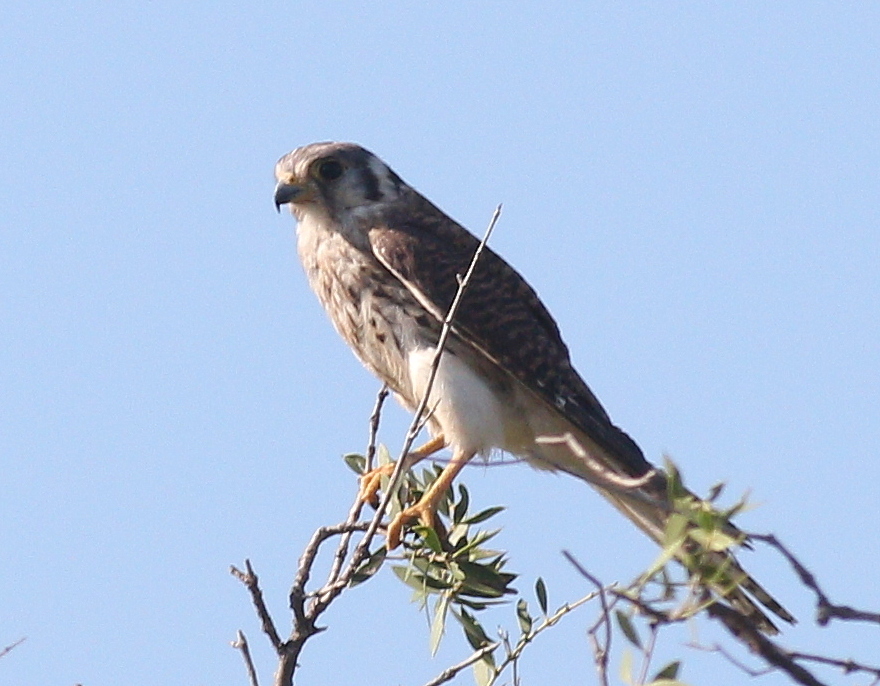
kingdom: Animalia
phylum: Chordata
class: Aves
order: Falconiformes
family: Falconidae
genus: Falco
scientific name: Falco sparverius
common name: American kestrel
